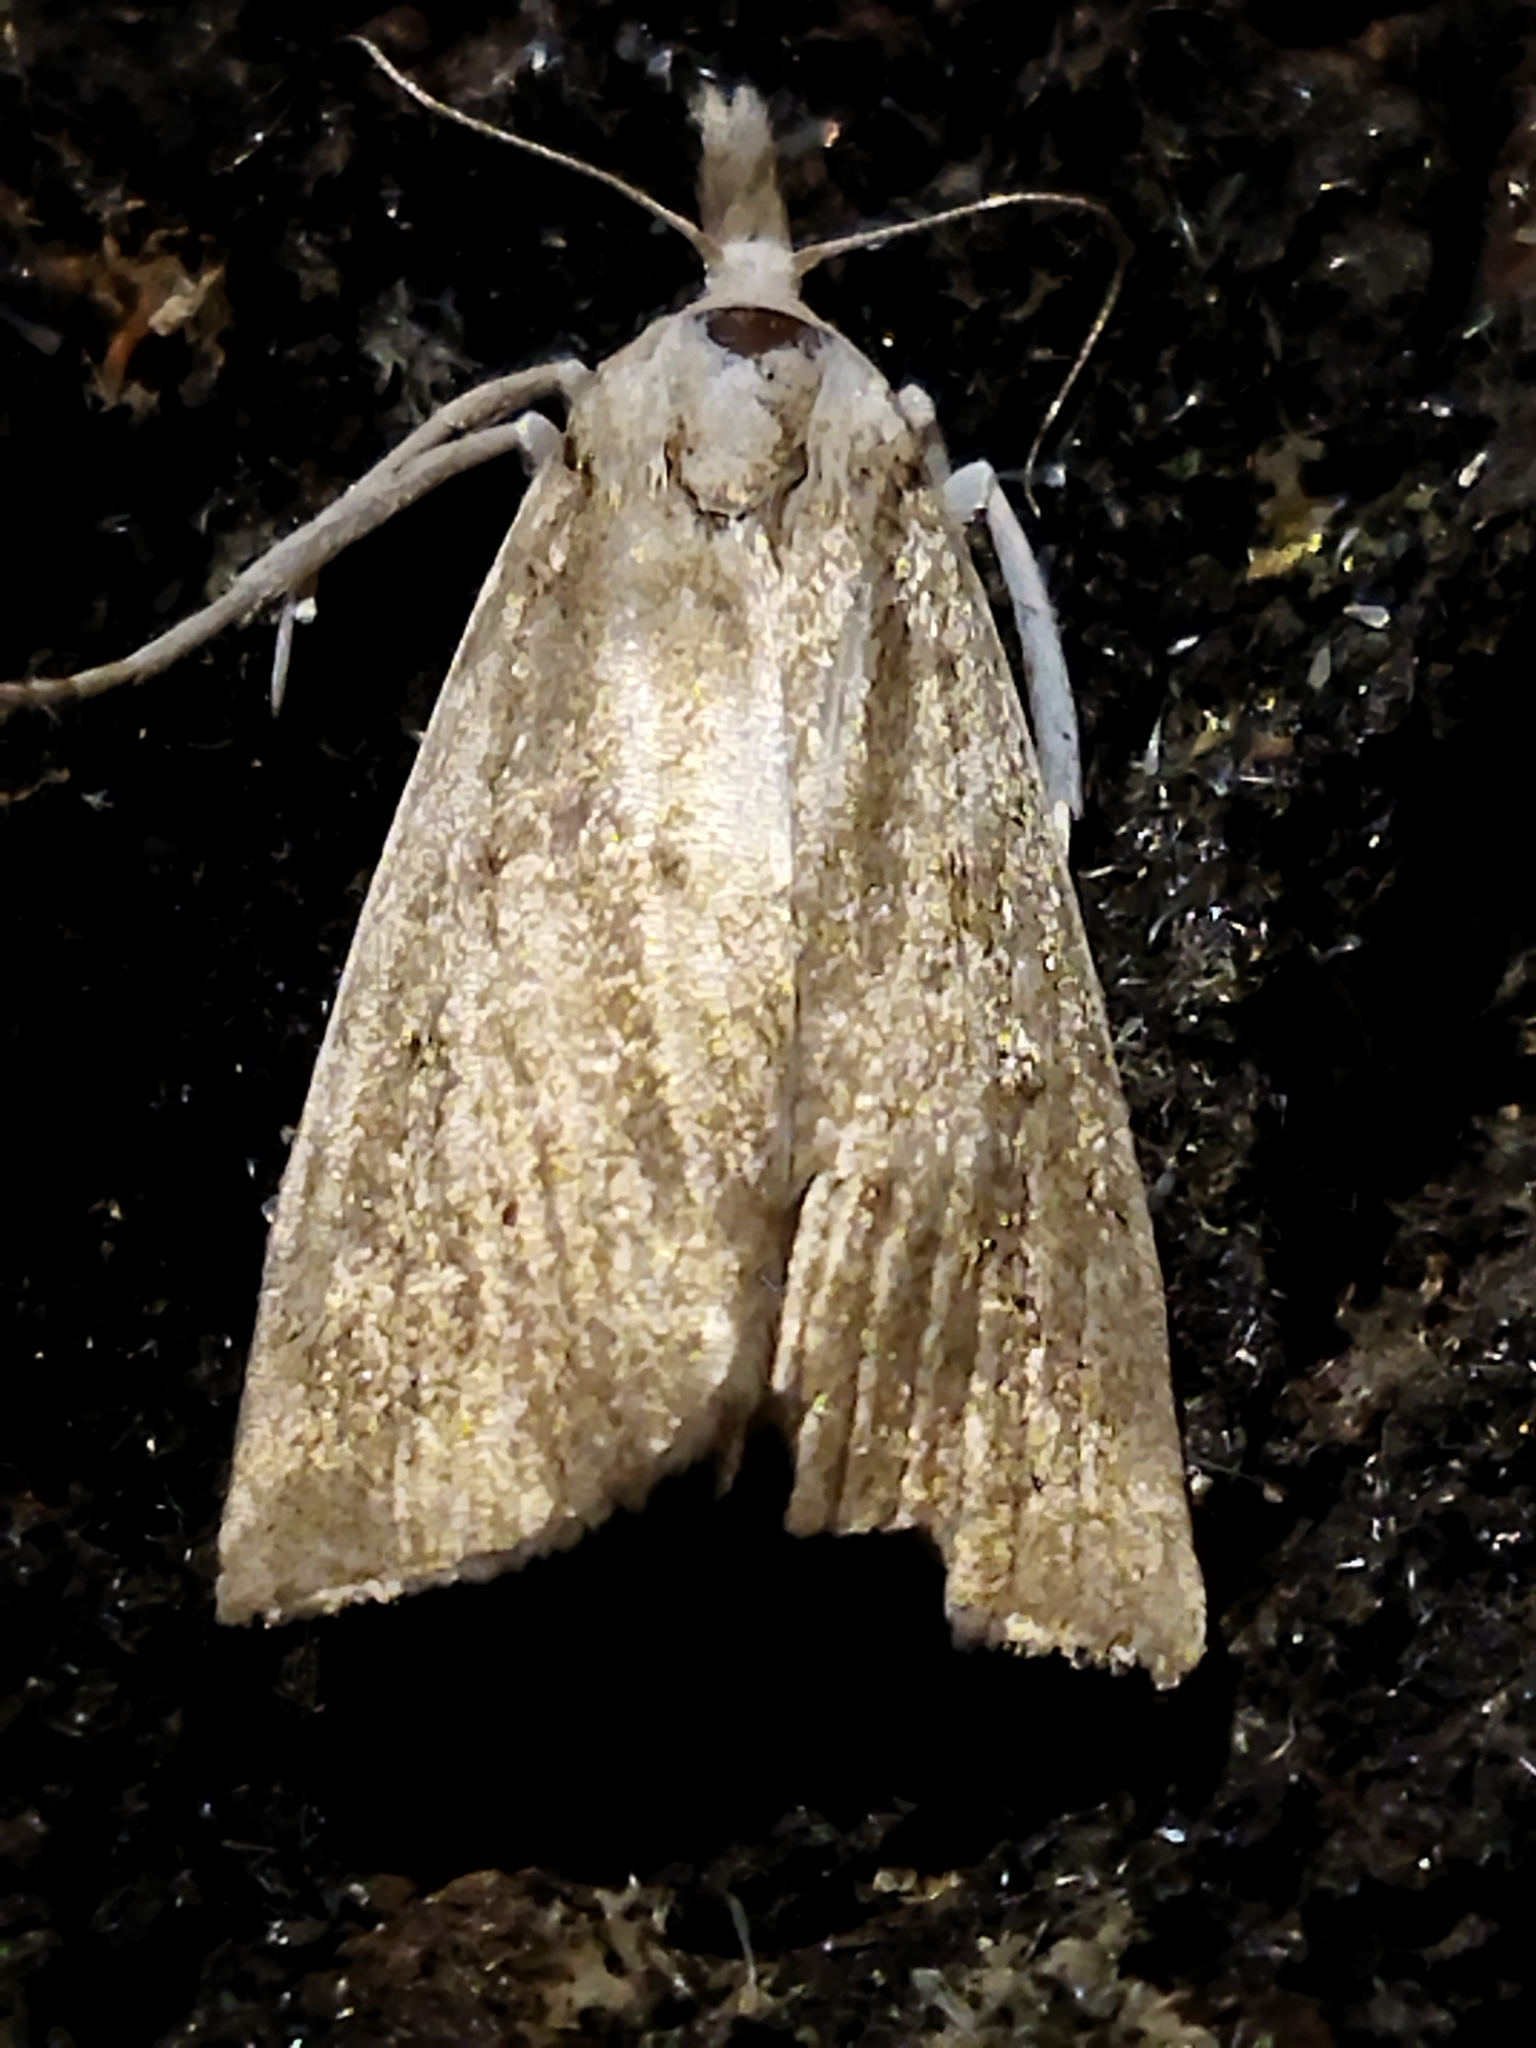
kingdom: Animalia
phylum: Arthropoda
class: Insecta
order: Lepidoptera
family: Crambidae
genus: Calamotropha
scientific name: Calamotropha paludella
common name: Bulrush veneer
